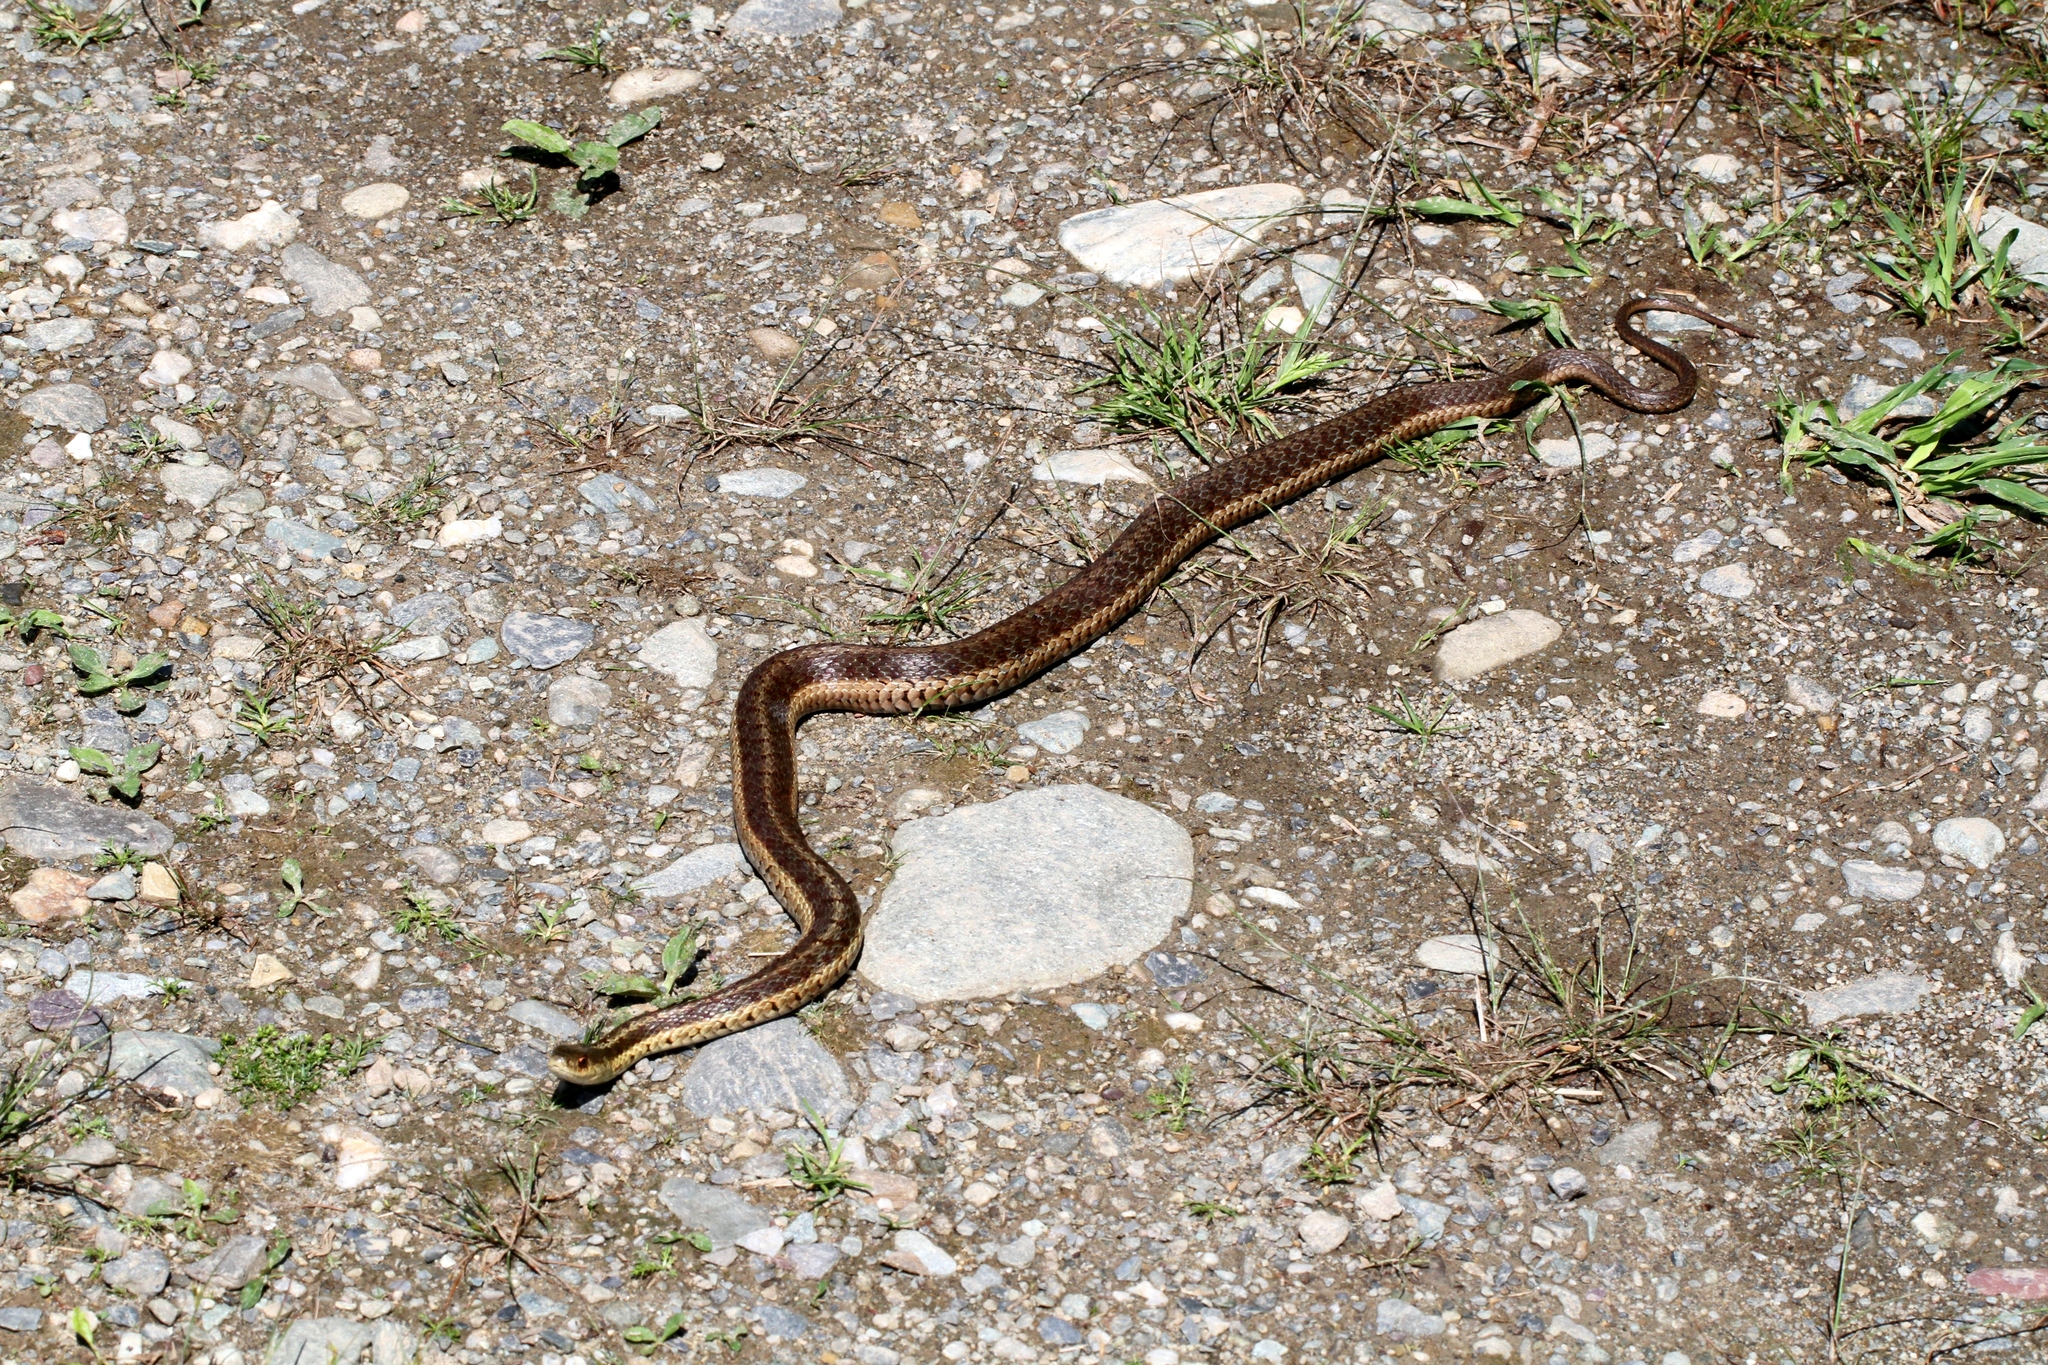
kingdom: Animalia
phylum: Chordata
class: Squamata
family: Colubridae
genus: Thamnophis
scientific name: Thamnophis sirtalis
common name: Common garter snake
